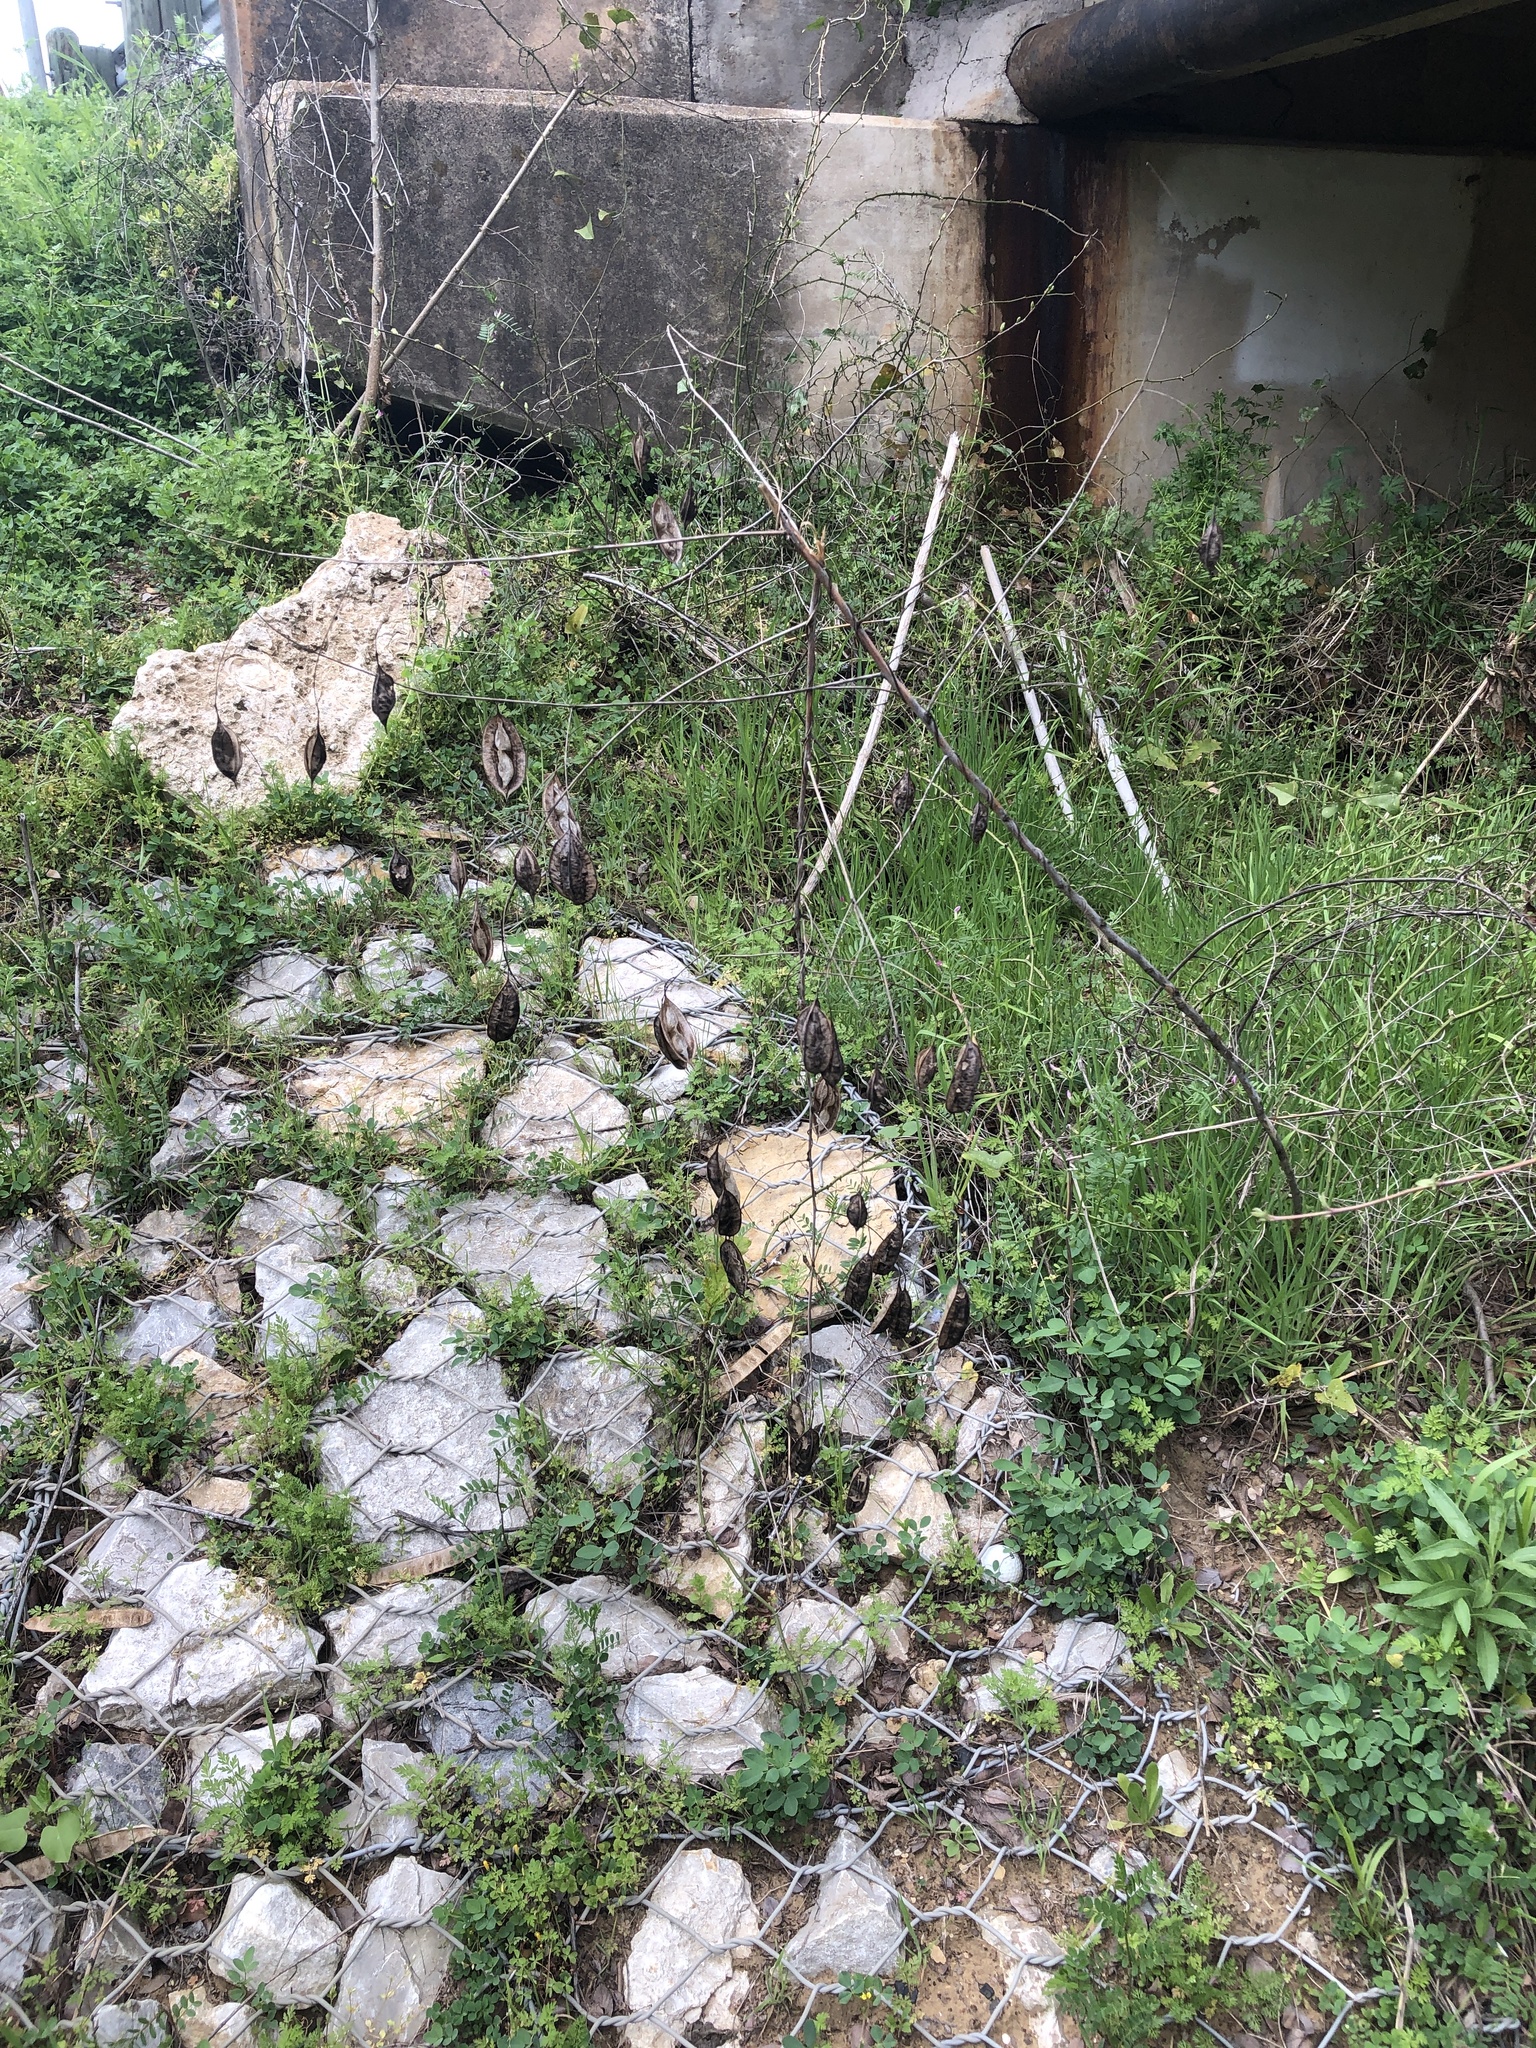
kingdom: Plantae
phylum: Tracheophyta
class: Magnoliopsida
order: Fabales
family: Fabaceae
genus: Sesbania
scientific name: Sesbania vesicaria
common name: Bagpod
